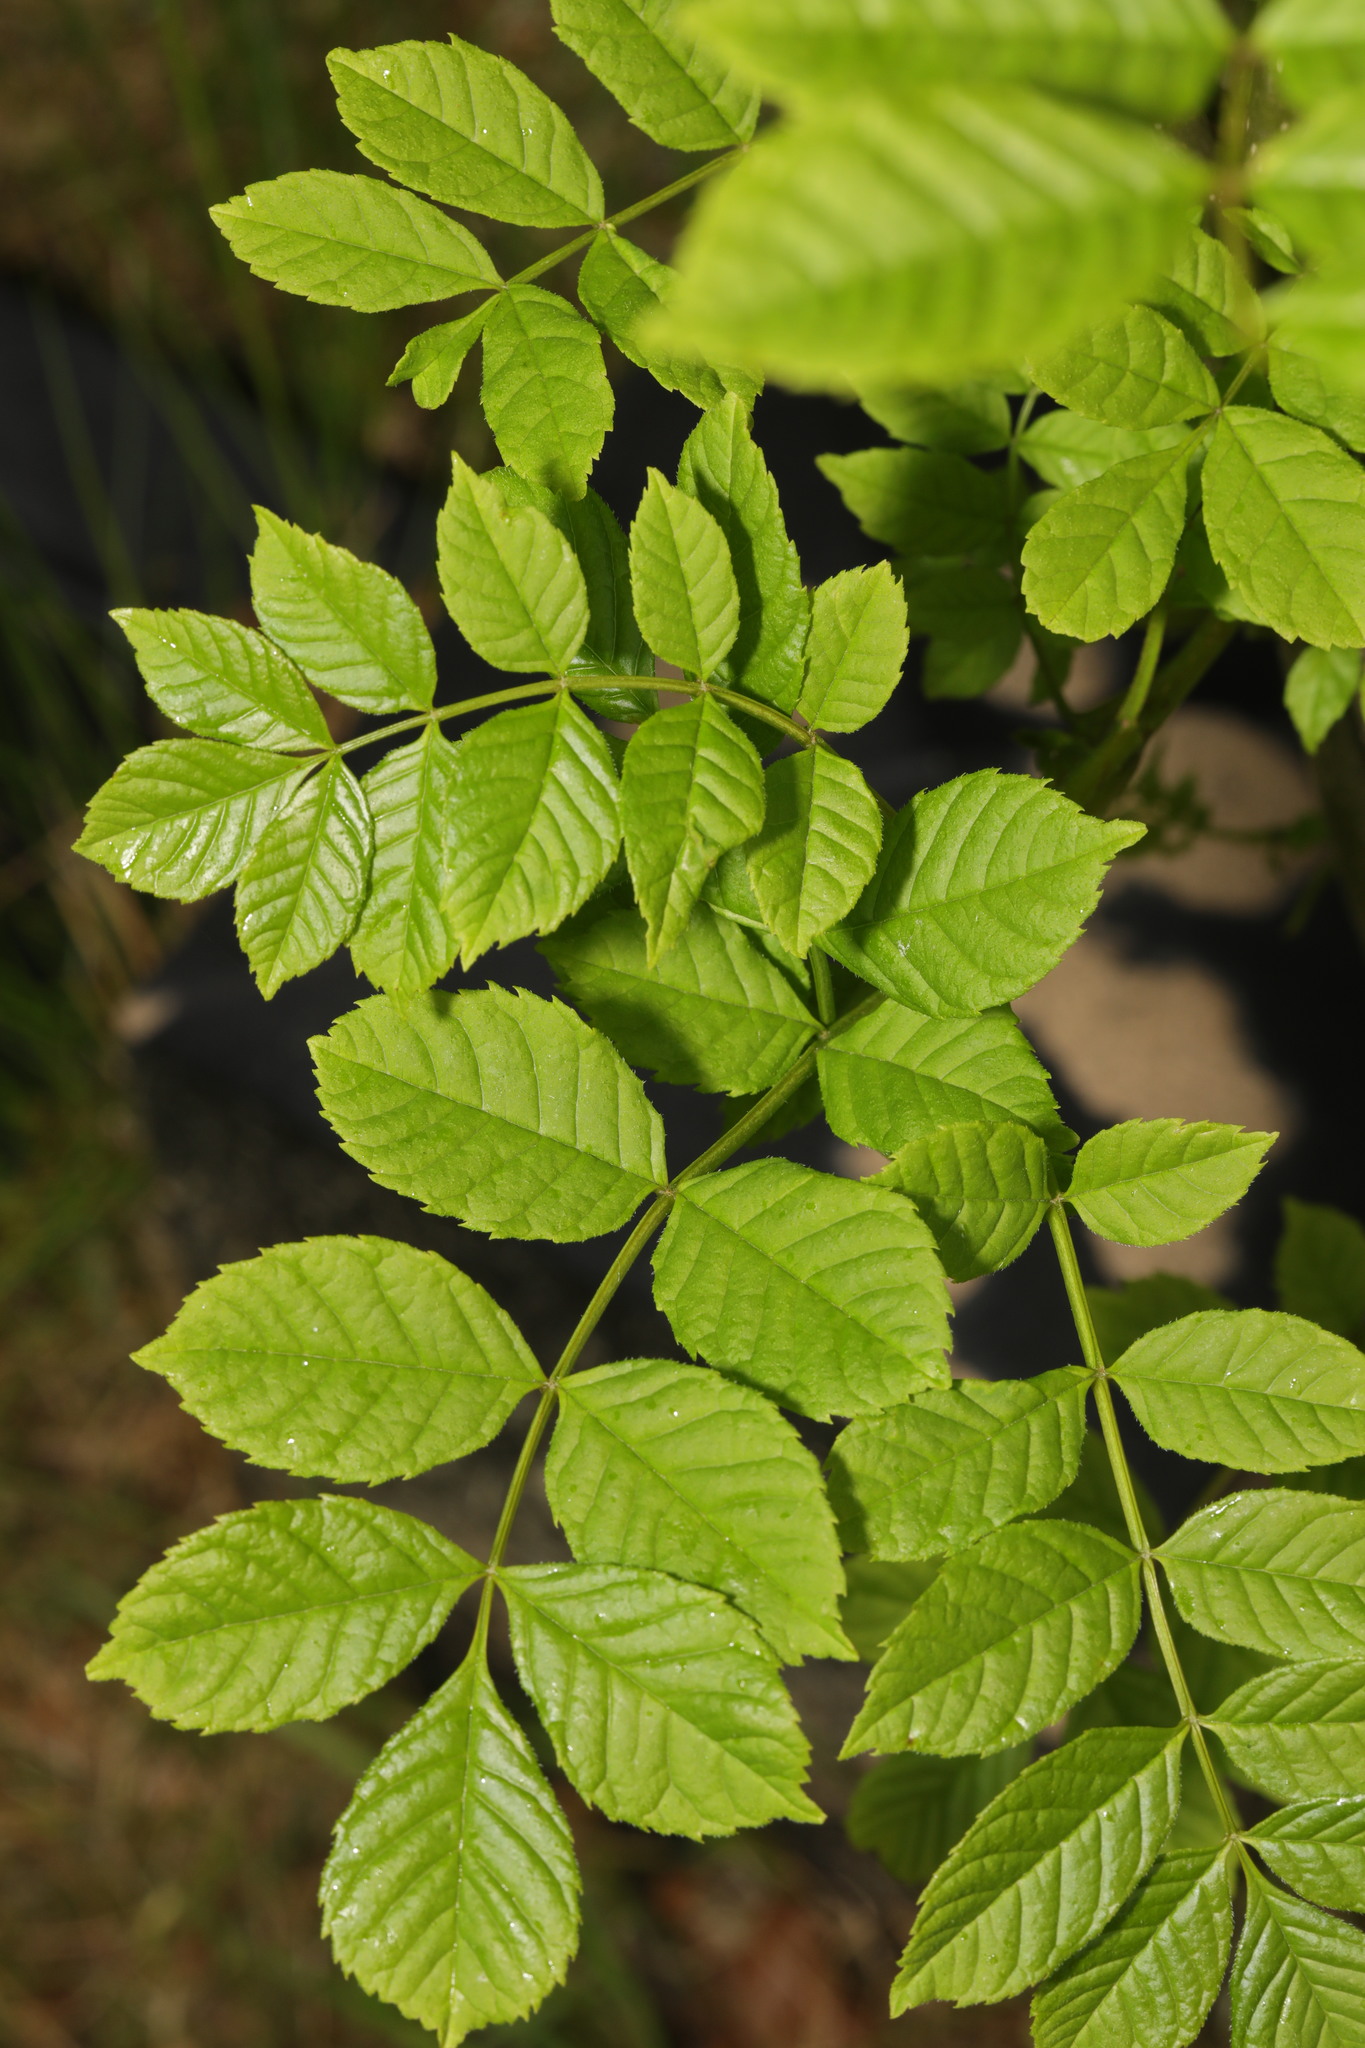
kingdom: Plantae
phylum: Tracheophyta
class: Magnoliopsida
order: Lamiales
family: Oleaceae
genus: Fraxinus
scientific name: Fraxinus excelsior
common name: European ash
